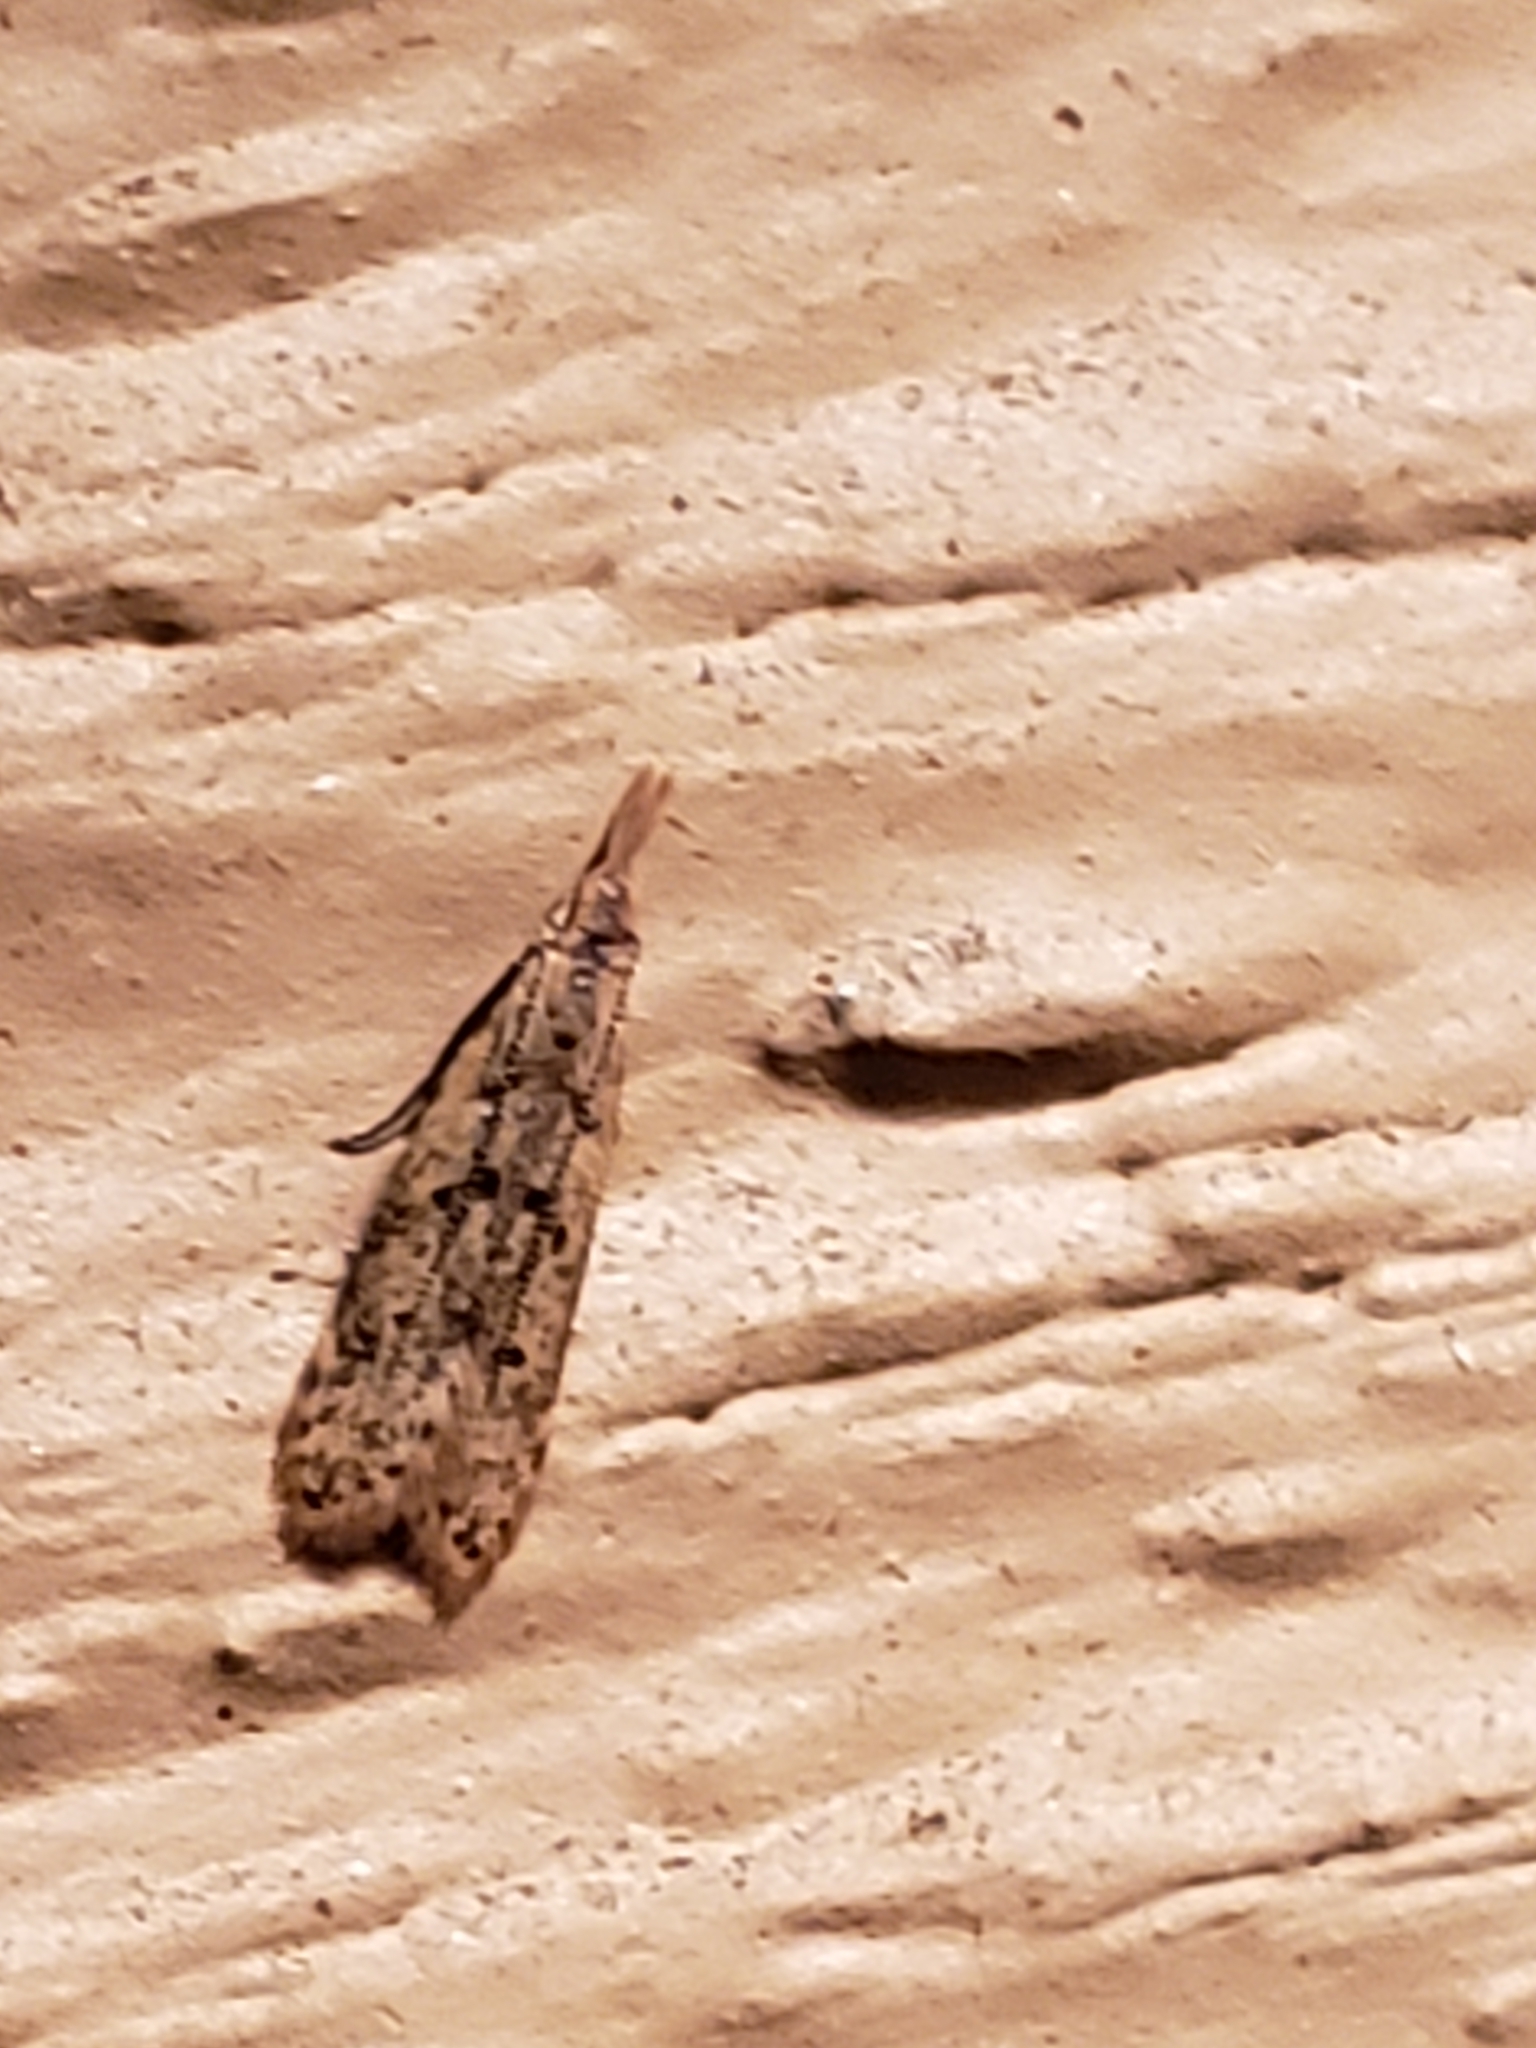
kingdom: Animalia
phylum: Arthropoda
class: Insecta
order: Lepidoptera
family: Gelechiidae
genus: Dichomeris
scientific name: Dichomeris punctipennella
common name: Many-spotted dichomeris moth
